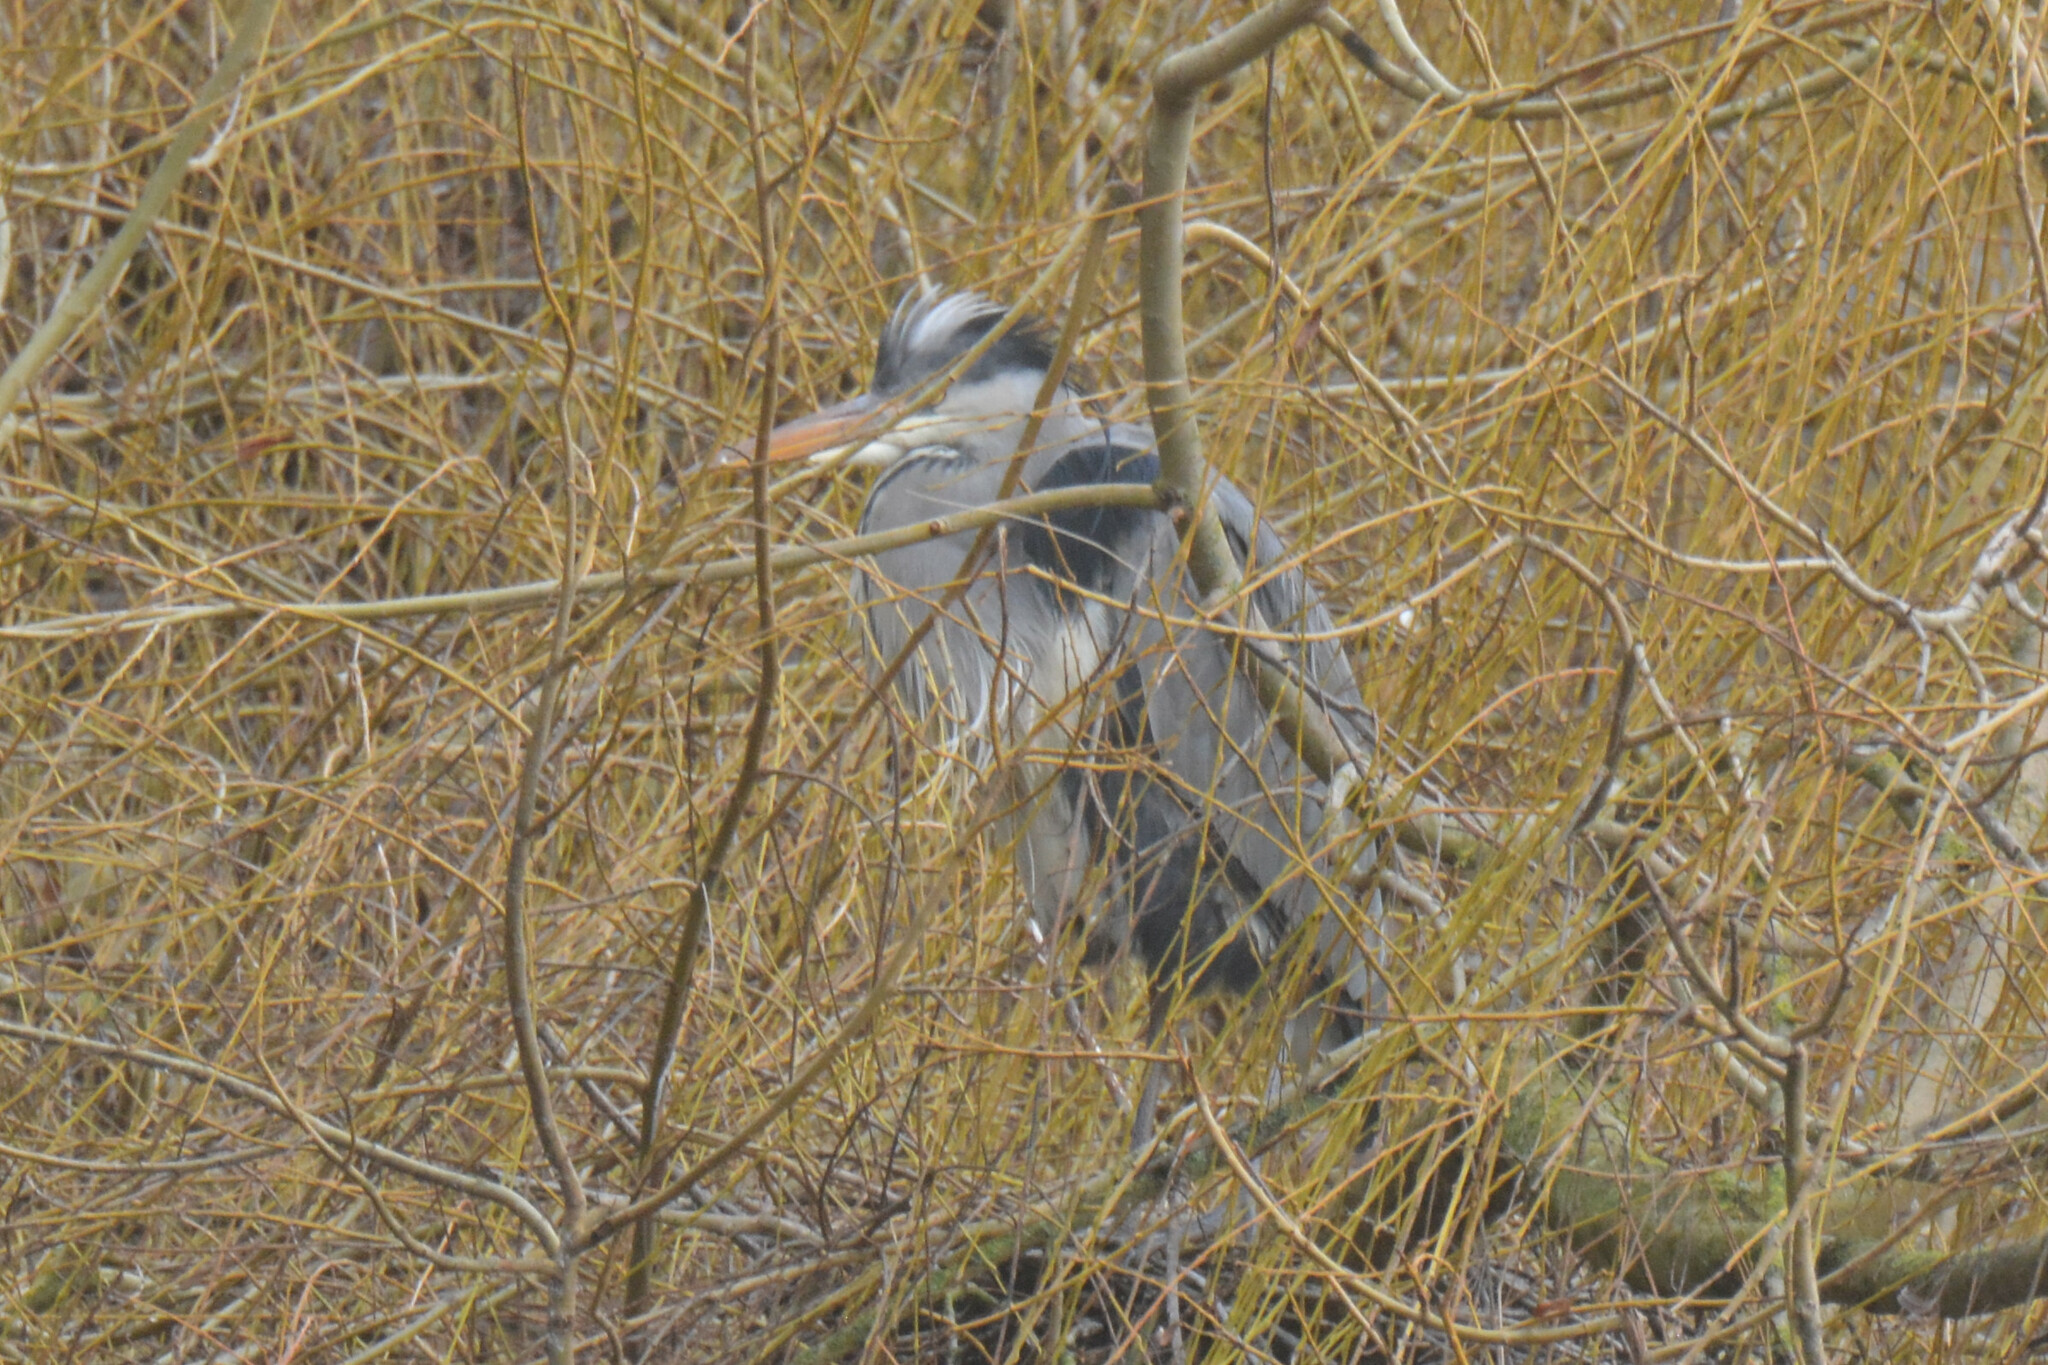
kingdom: Animalia
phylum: Chordata
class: Aves
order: Pelecaniformes
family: Ardeidae
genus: Ardea
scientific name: Ardea cinerea
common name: Grey heron
